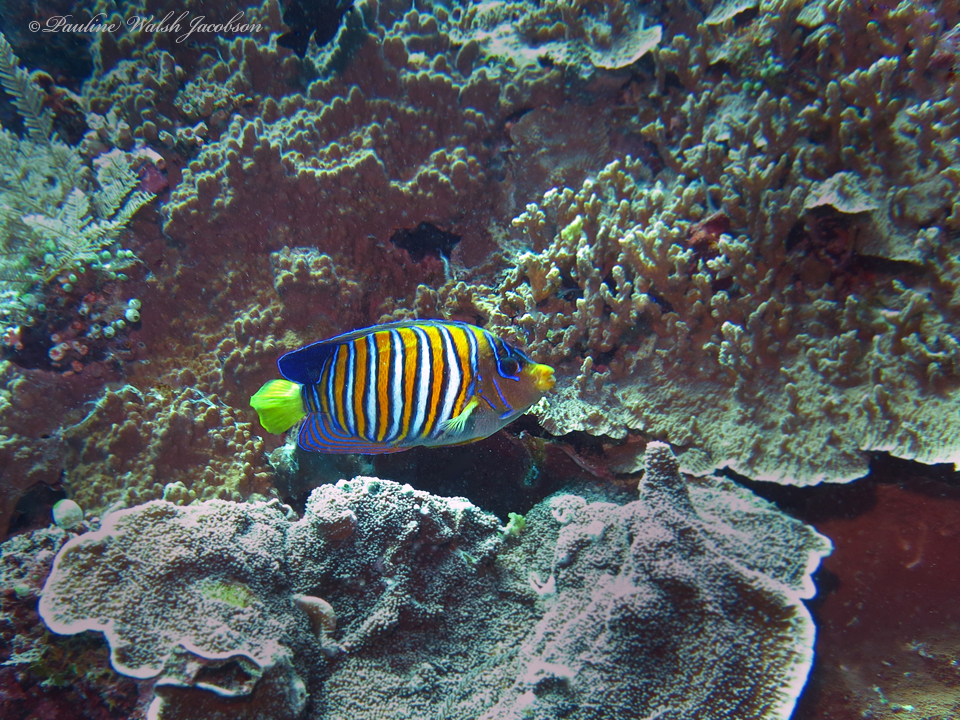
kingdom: Animalia
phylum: Chordata
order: Perciformes
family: Pomacanthidae
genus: Pygoplites
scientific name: Pygoplites diacanthus
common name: Regal angelfish
